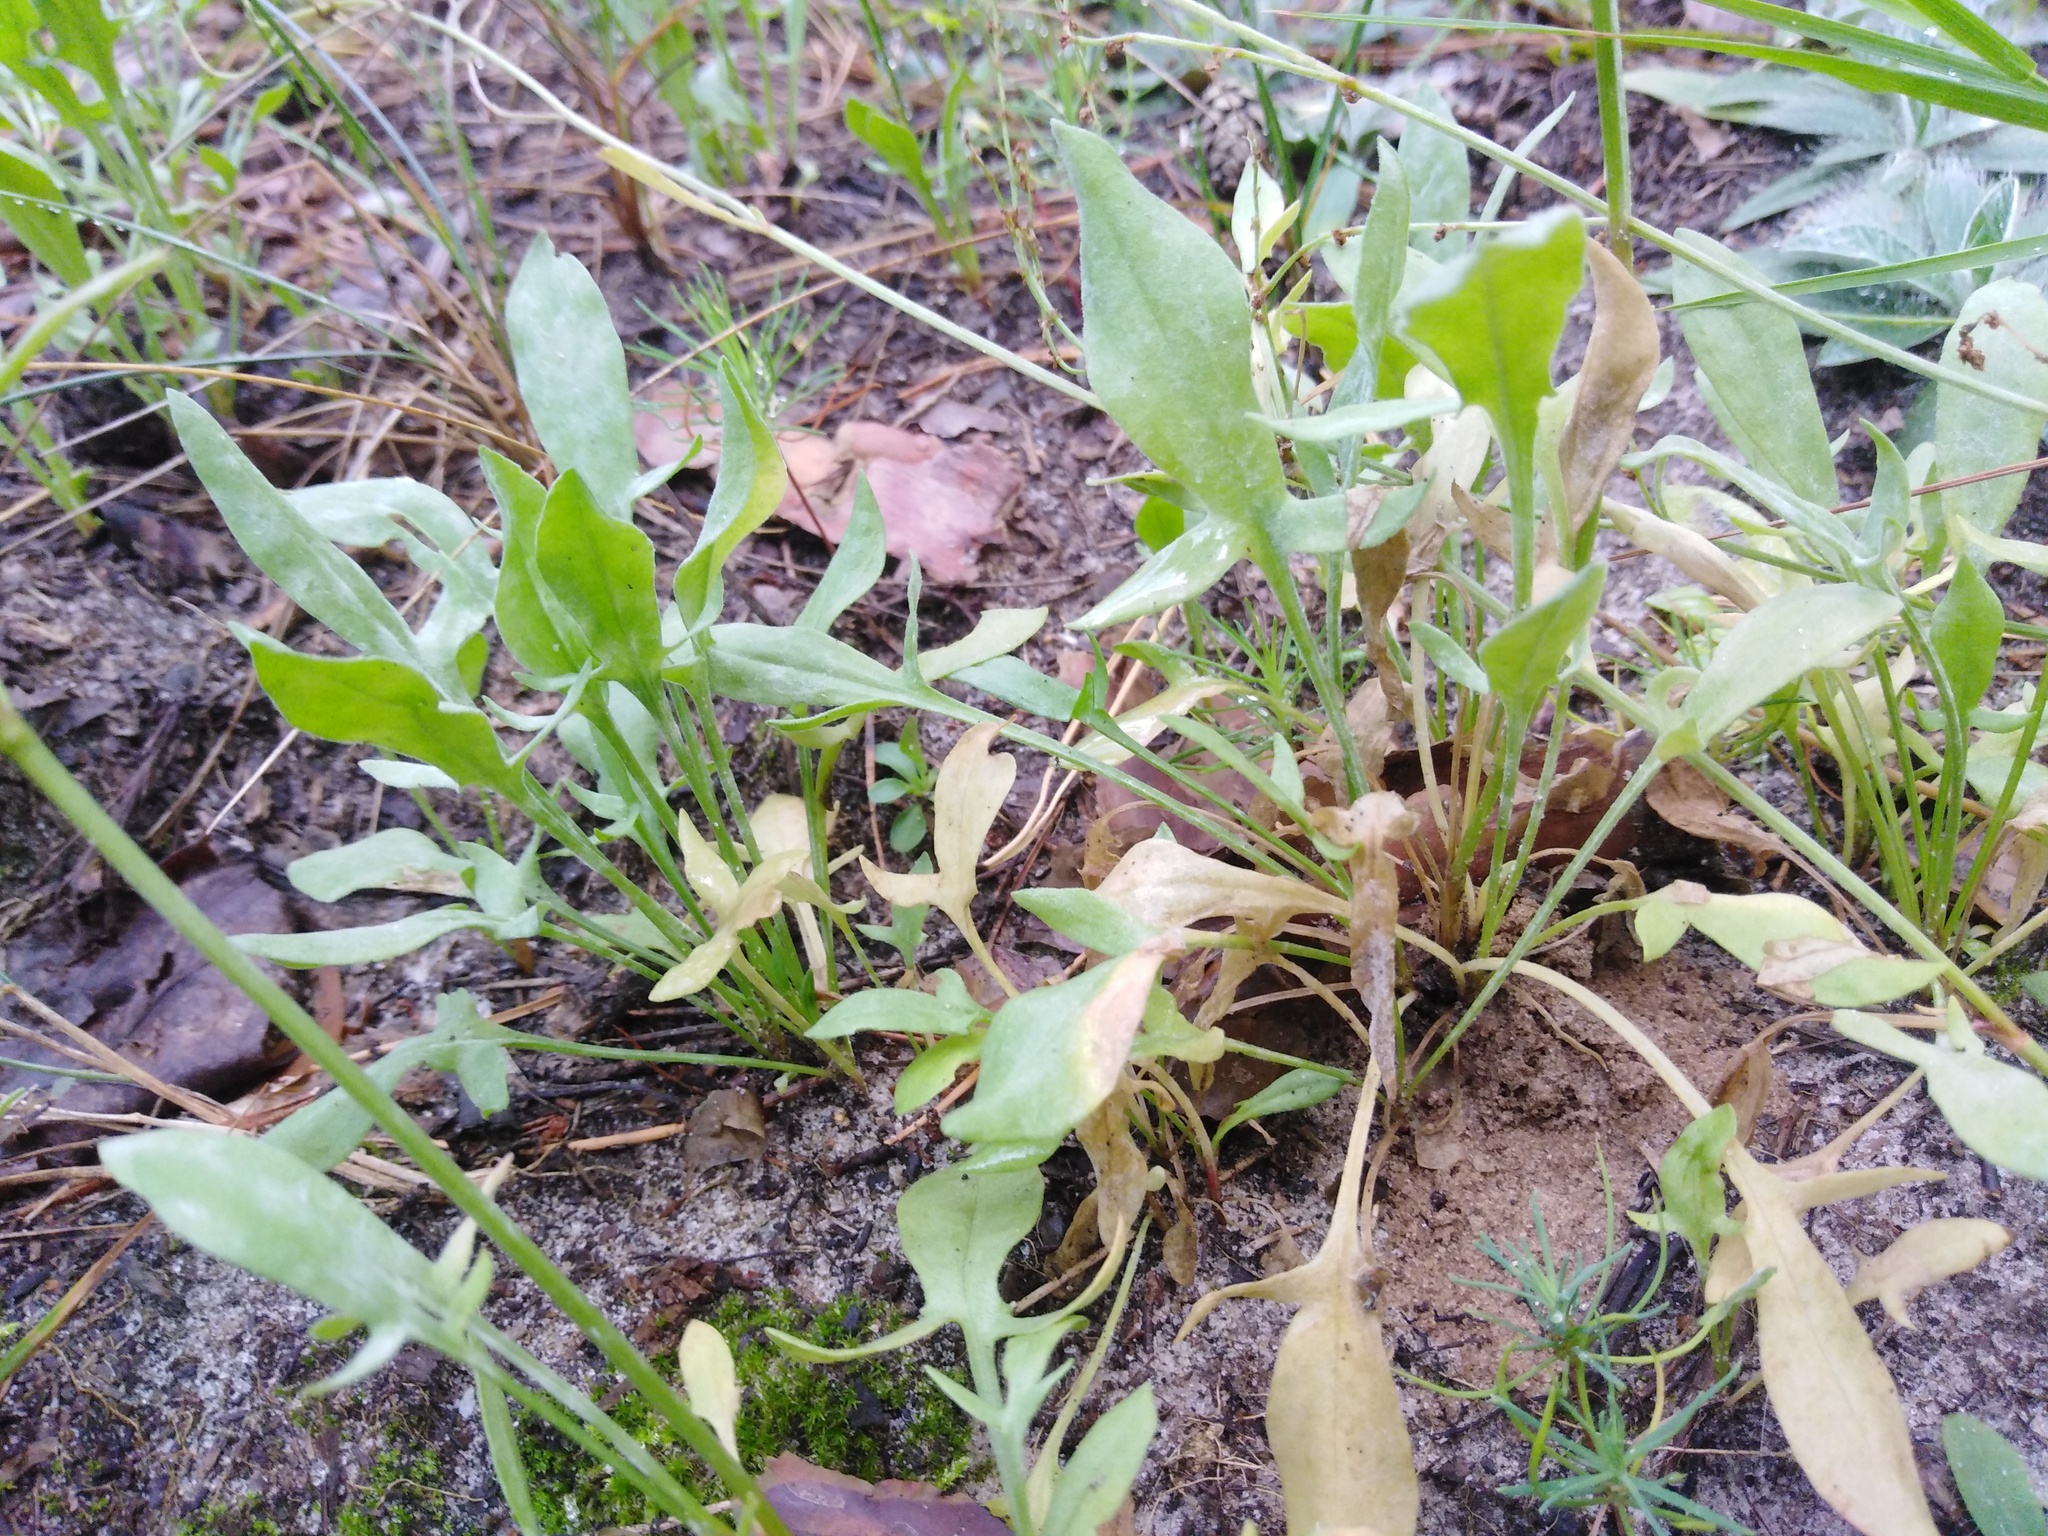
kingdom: Plantae
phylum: Tracheophyta
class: Magnoliopsida
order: Caryophyllales
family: Polygonaceae
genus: Rumex
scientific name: Rumex acetosella
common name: Common sheep sorrel
